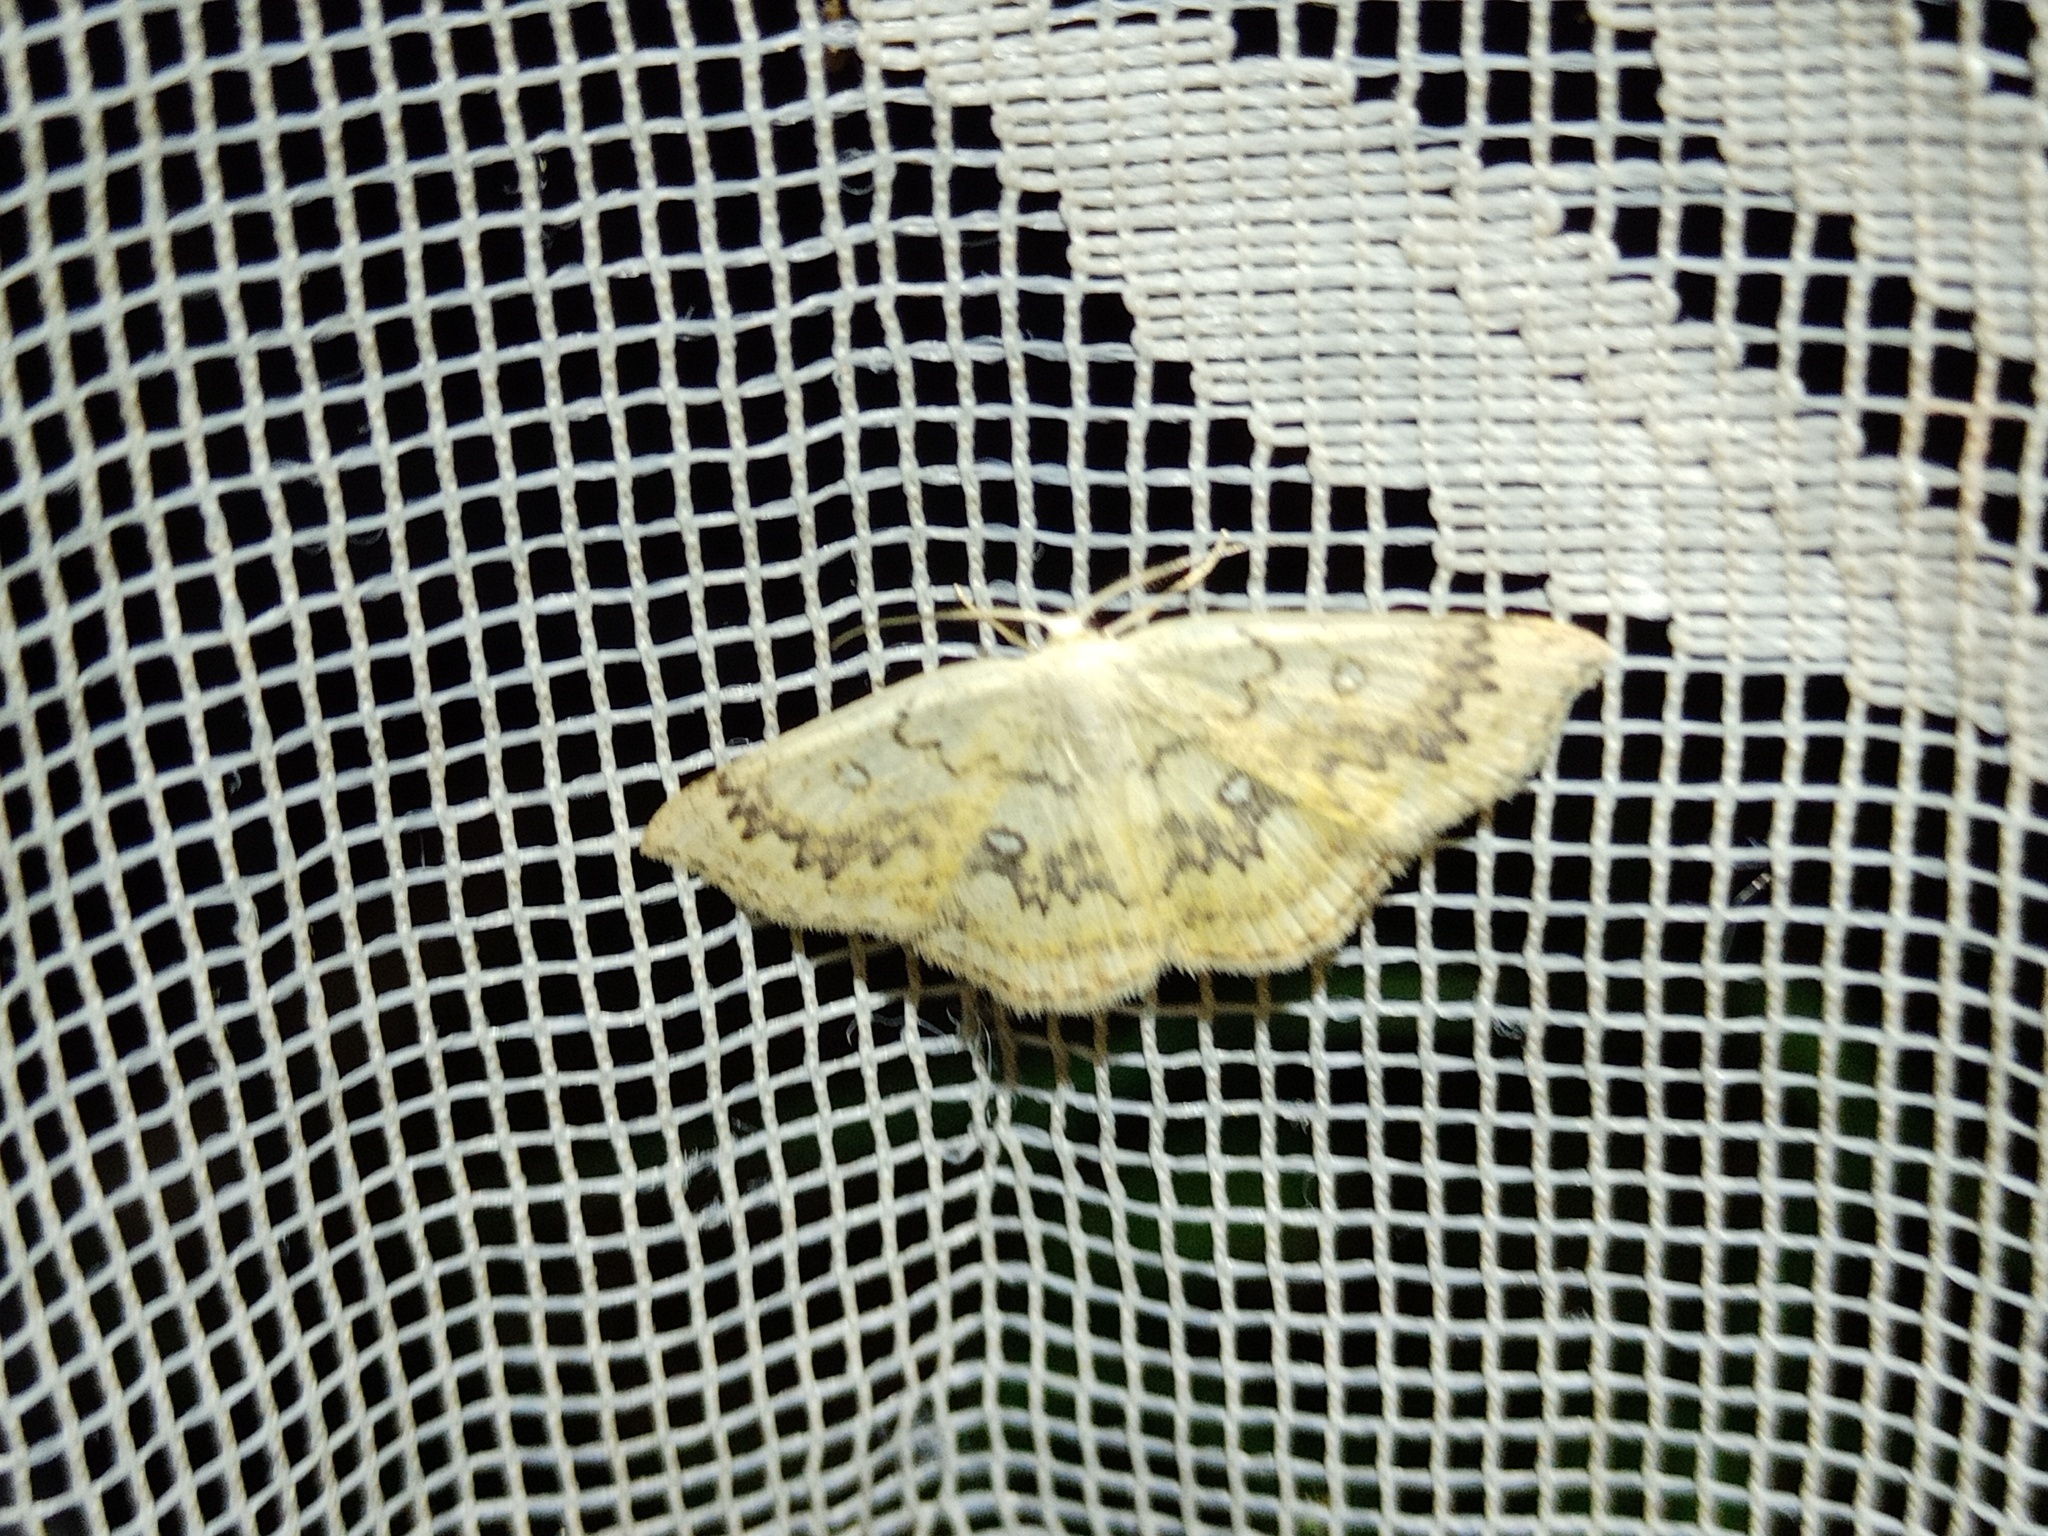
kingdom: Animalia
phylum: Arthropoda
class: Insecta
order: Lepidoptera
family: Geometridae
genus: Cyclophora
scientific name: Cyclophora annularia
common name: Mocha
